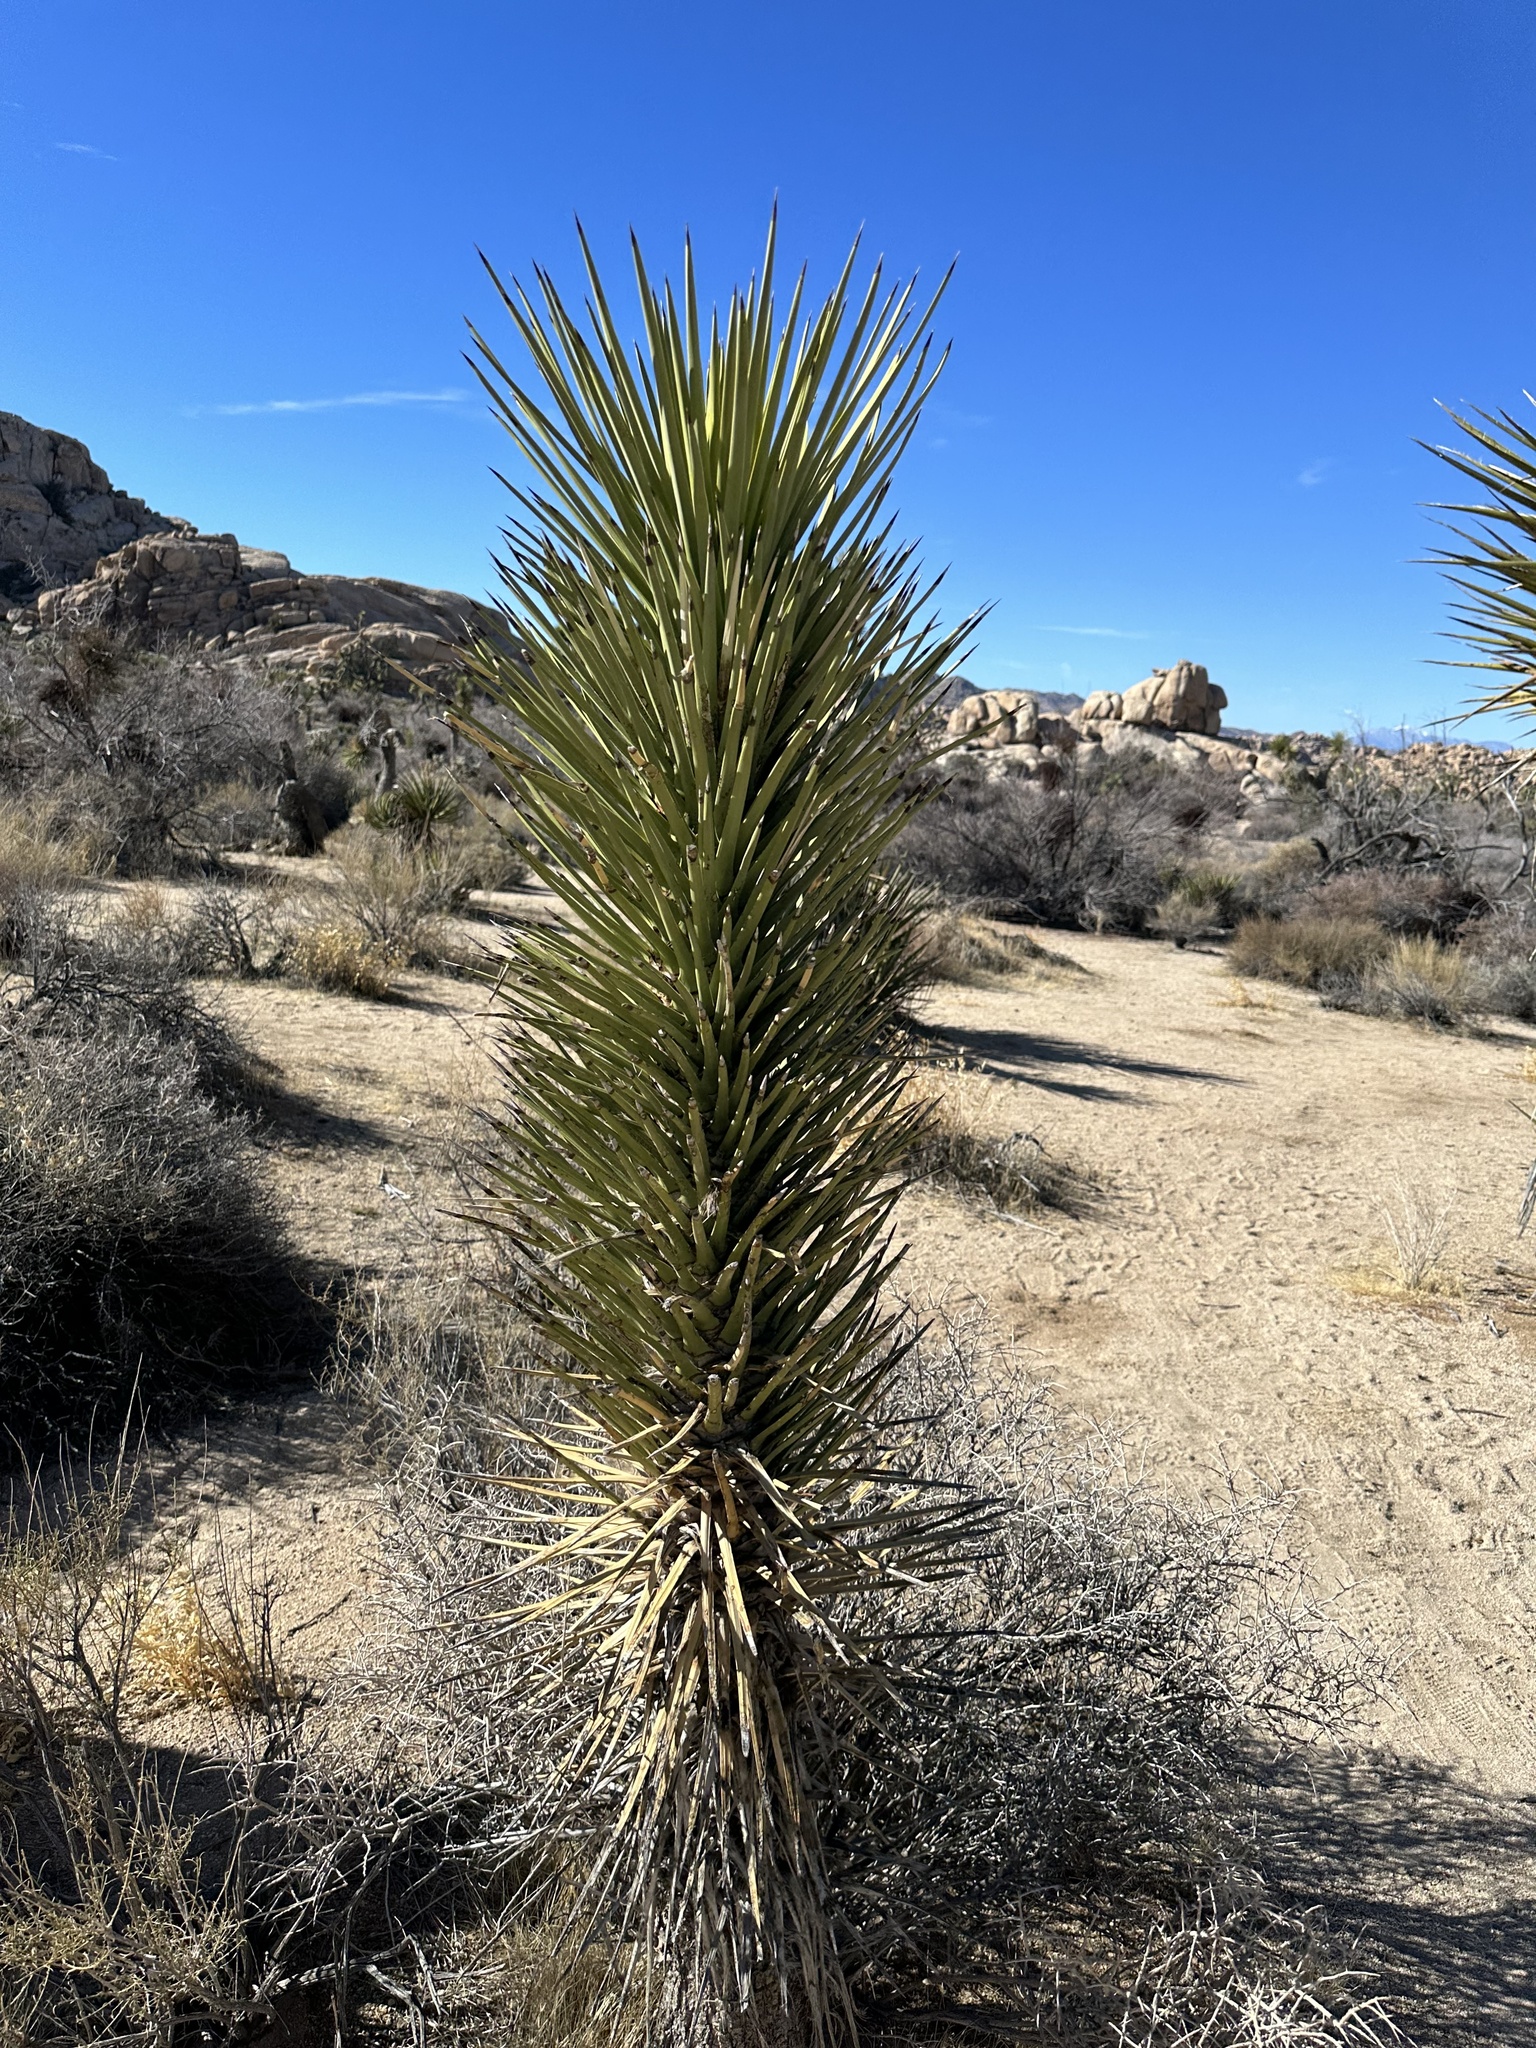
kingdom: Plantae
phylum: Tracheophyta
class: Liliopsida
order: Asparagales
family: Asparagaceae
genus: Yucca
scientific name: Yucca brevifolia
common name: Joshua tree
